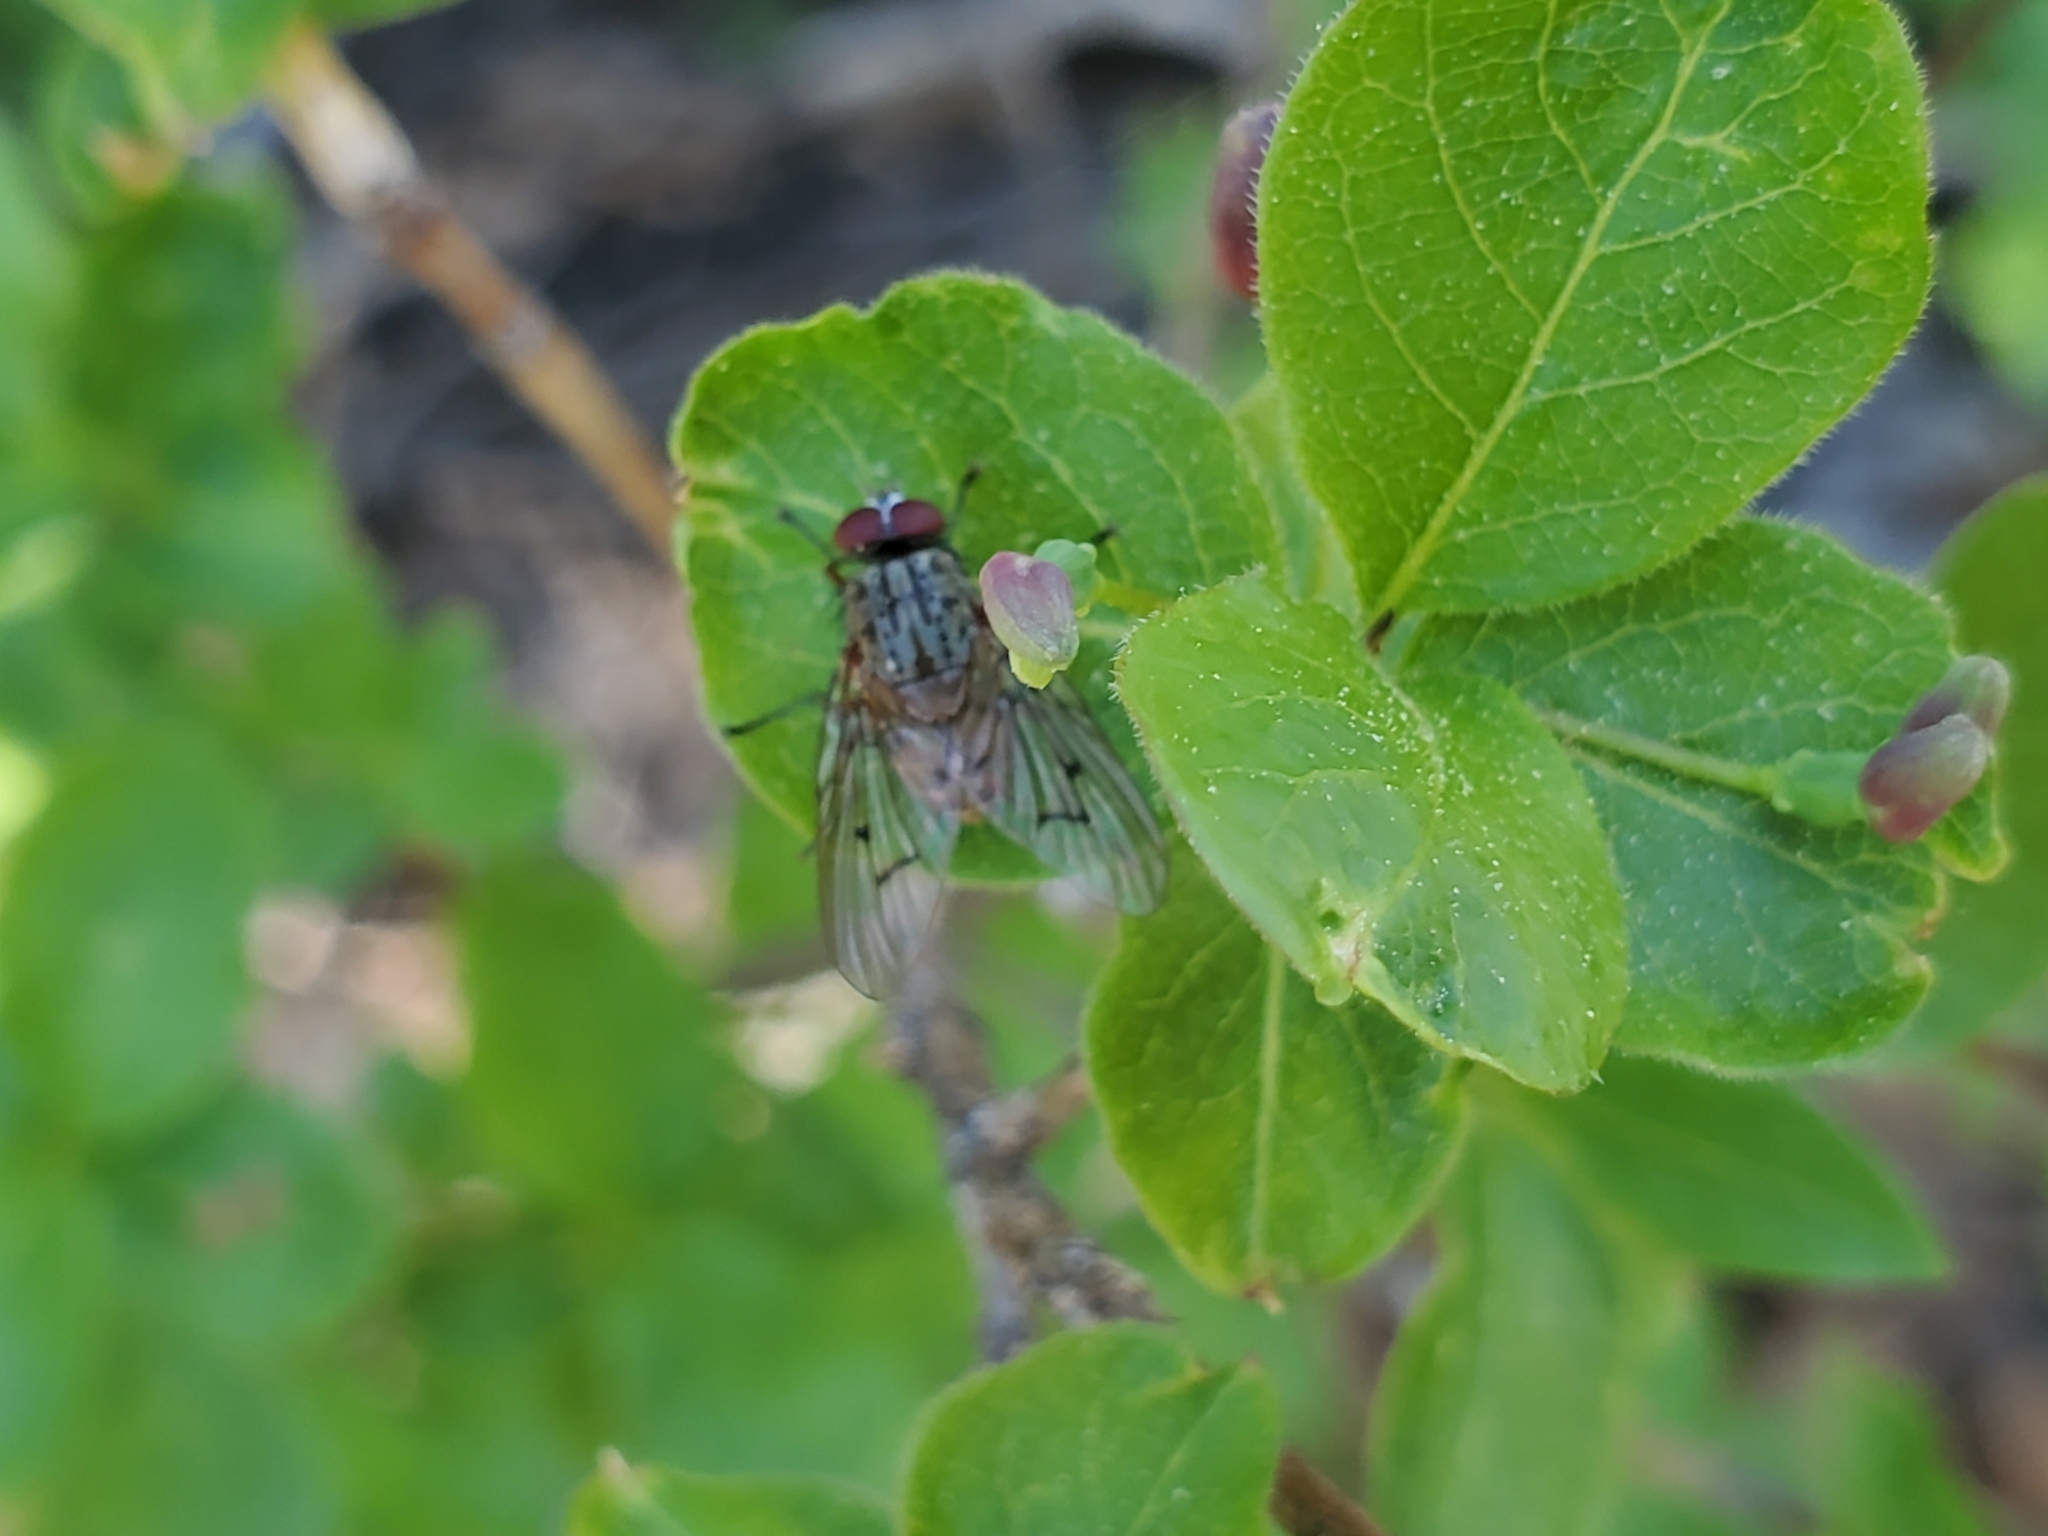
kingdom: Plantae
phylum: Tracheophyta
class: Magnoliopsida
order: Dipsacales
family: Caprifoliaceae
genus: Lonicera
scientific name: Lonicera conjugialis
